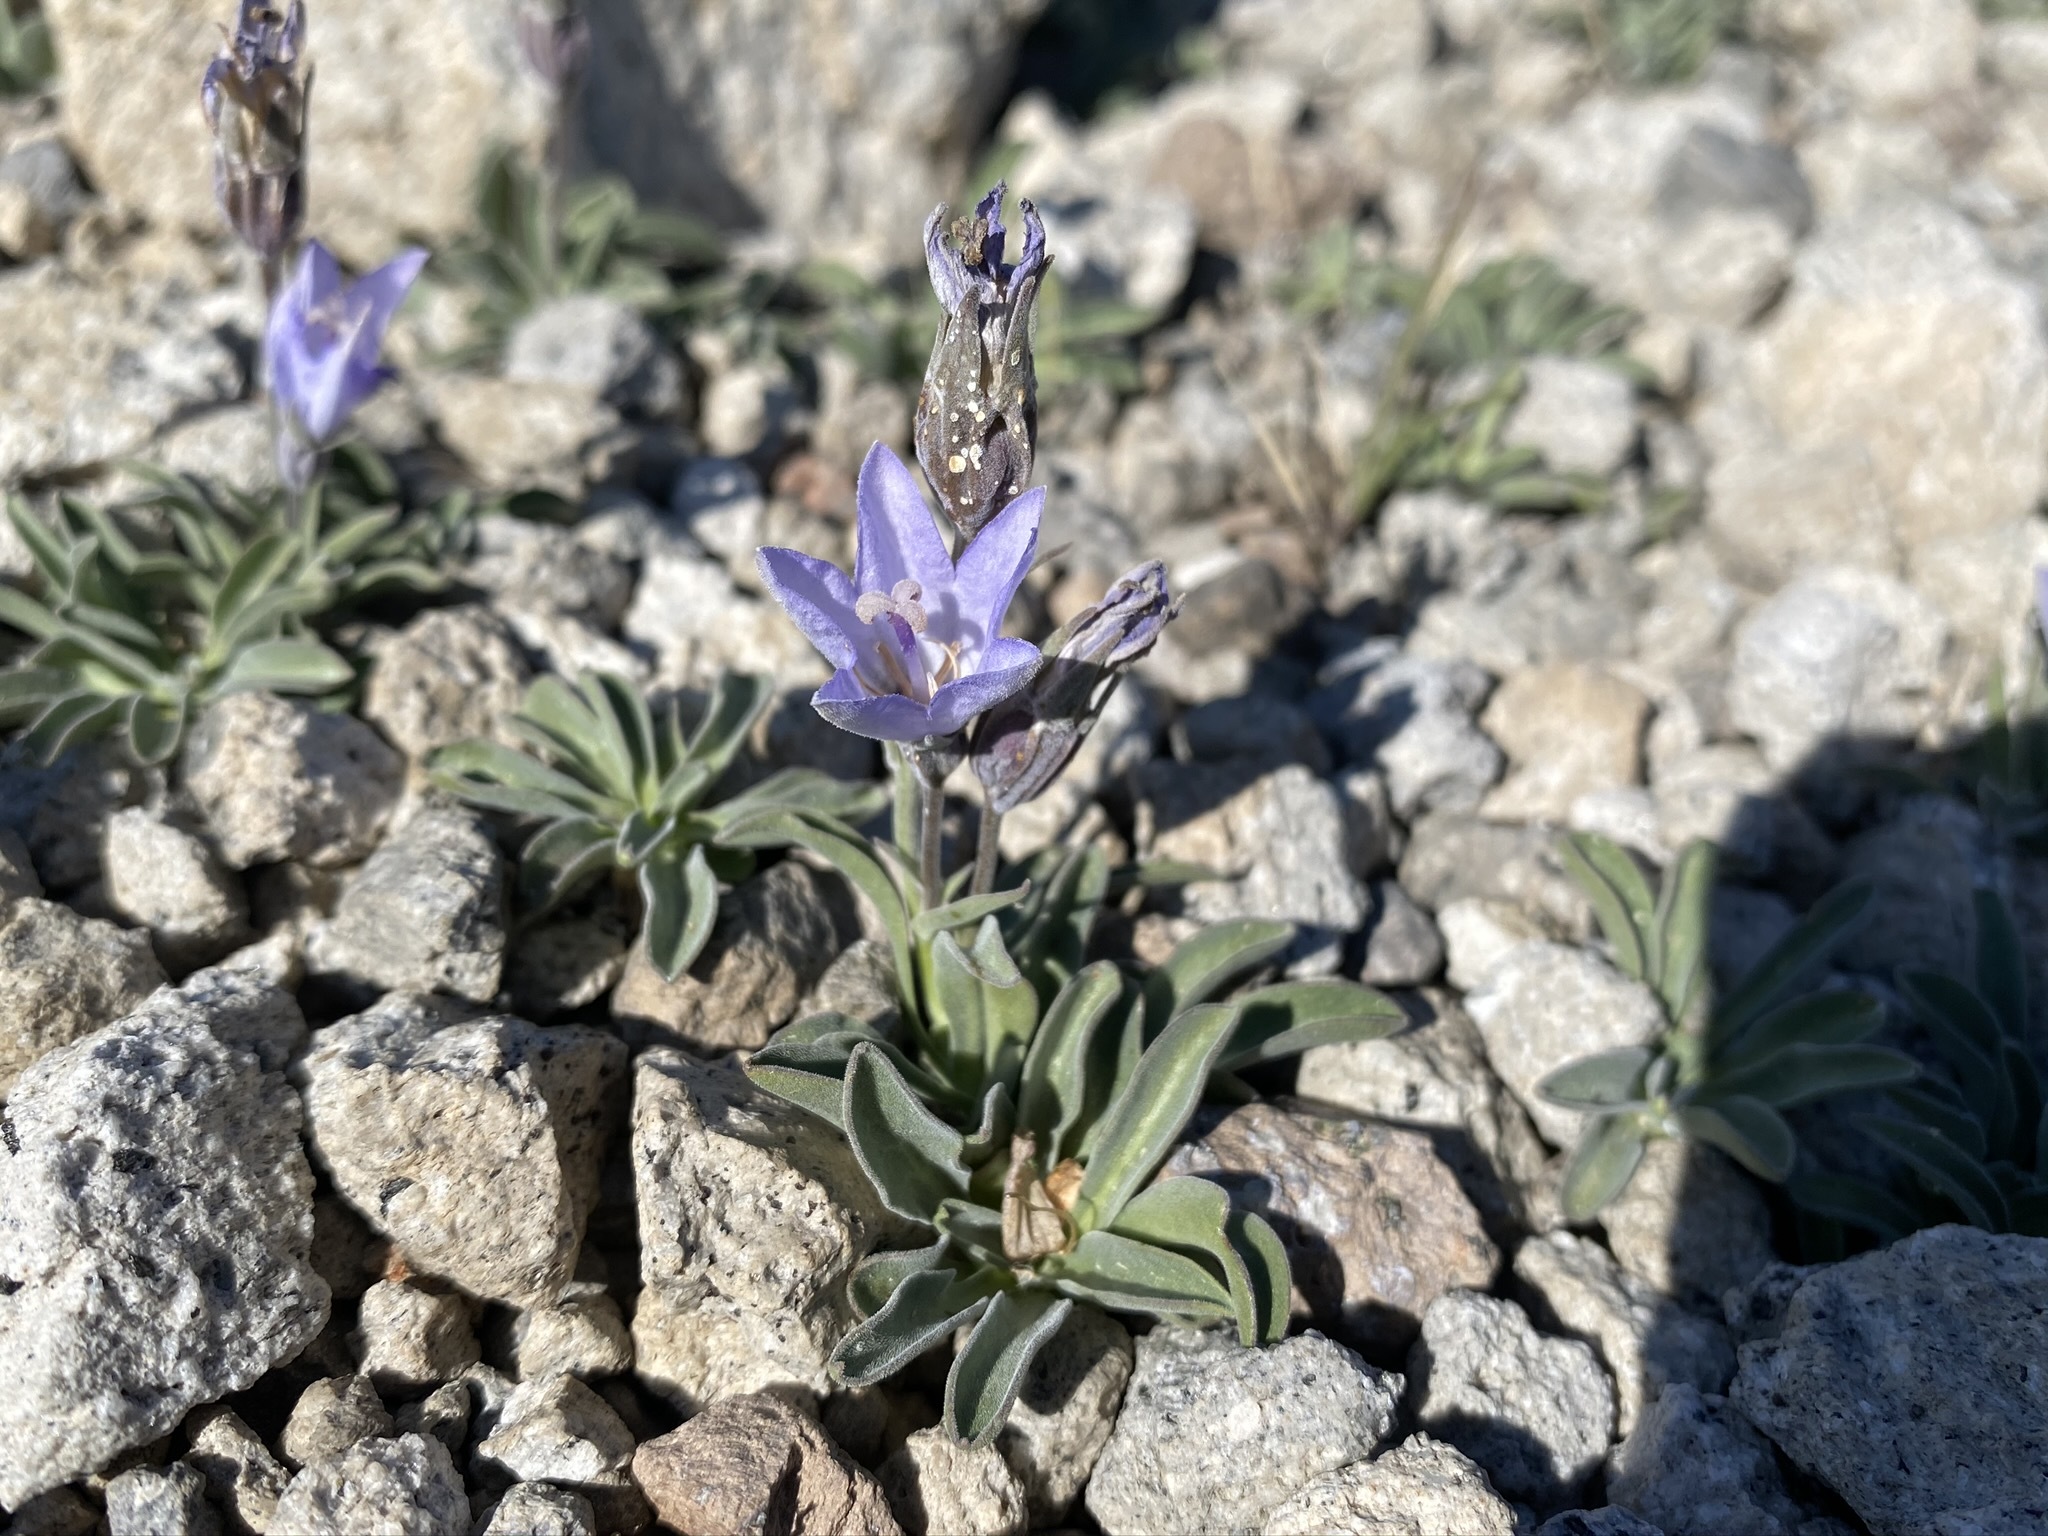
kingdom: Plantae
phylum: Tracheophyta
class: Magnoliopsida
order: Asterales
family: Campanulaceae
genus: Campanula
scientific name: Campanula scabrella
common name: Downy alpine bellflower
